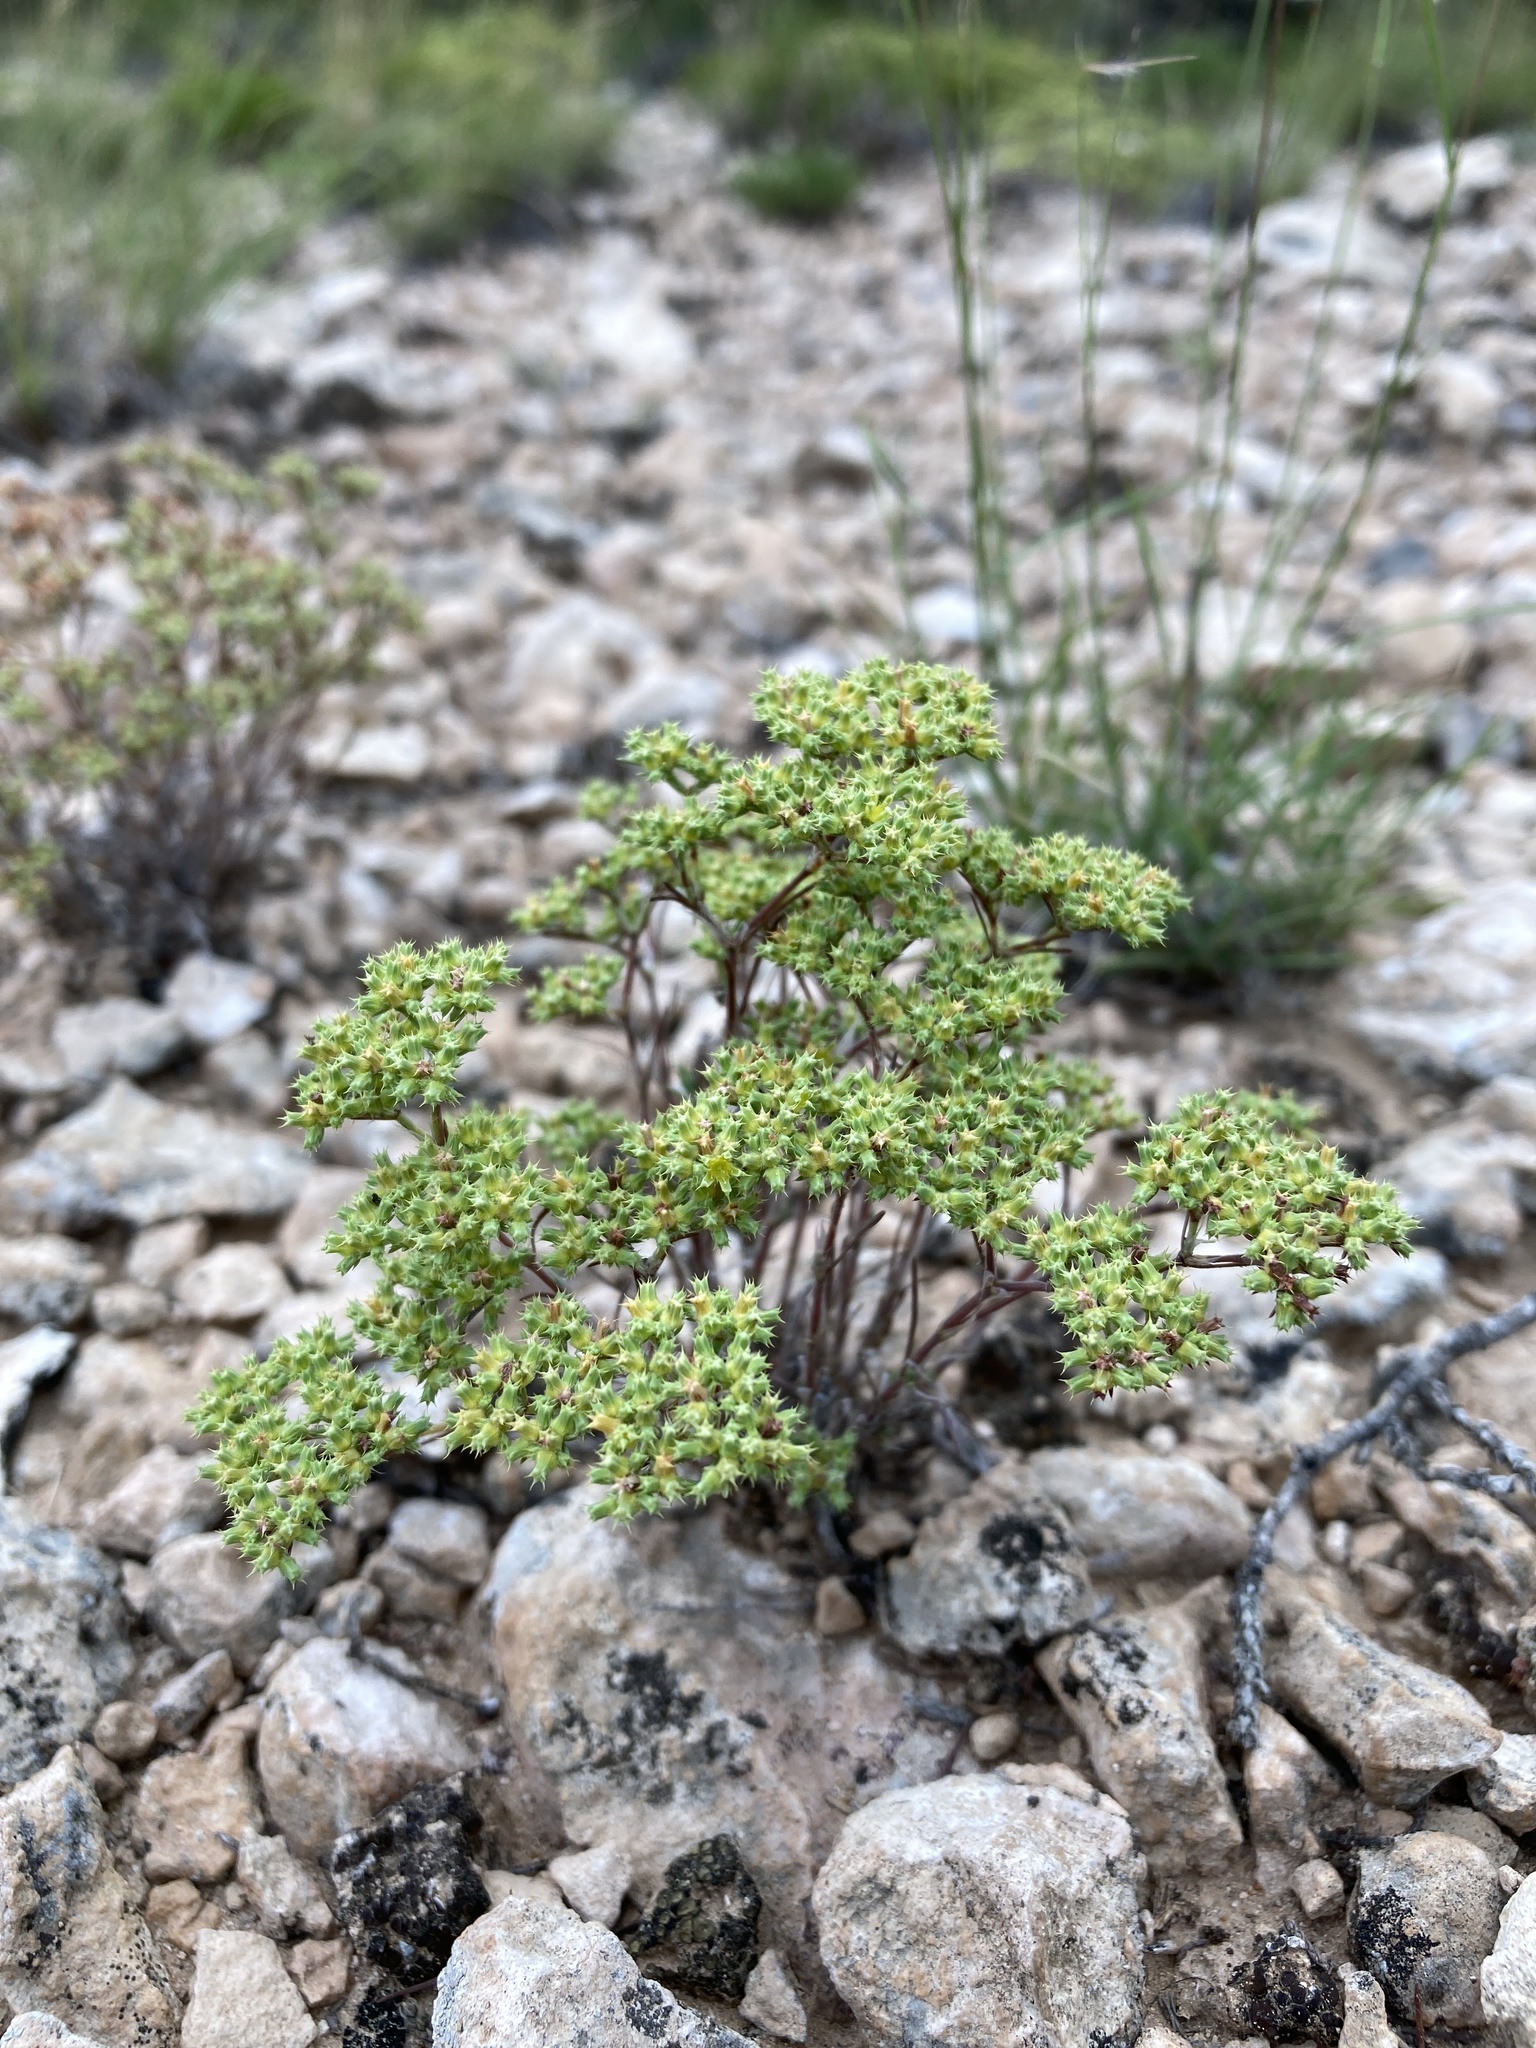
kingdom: Plantae
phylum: Tracheophyta
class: Magnoliopsida
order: Caryophyllales
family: Caryophyllaceae
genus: Paronychia
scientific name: Paronychia jamesii
